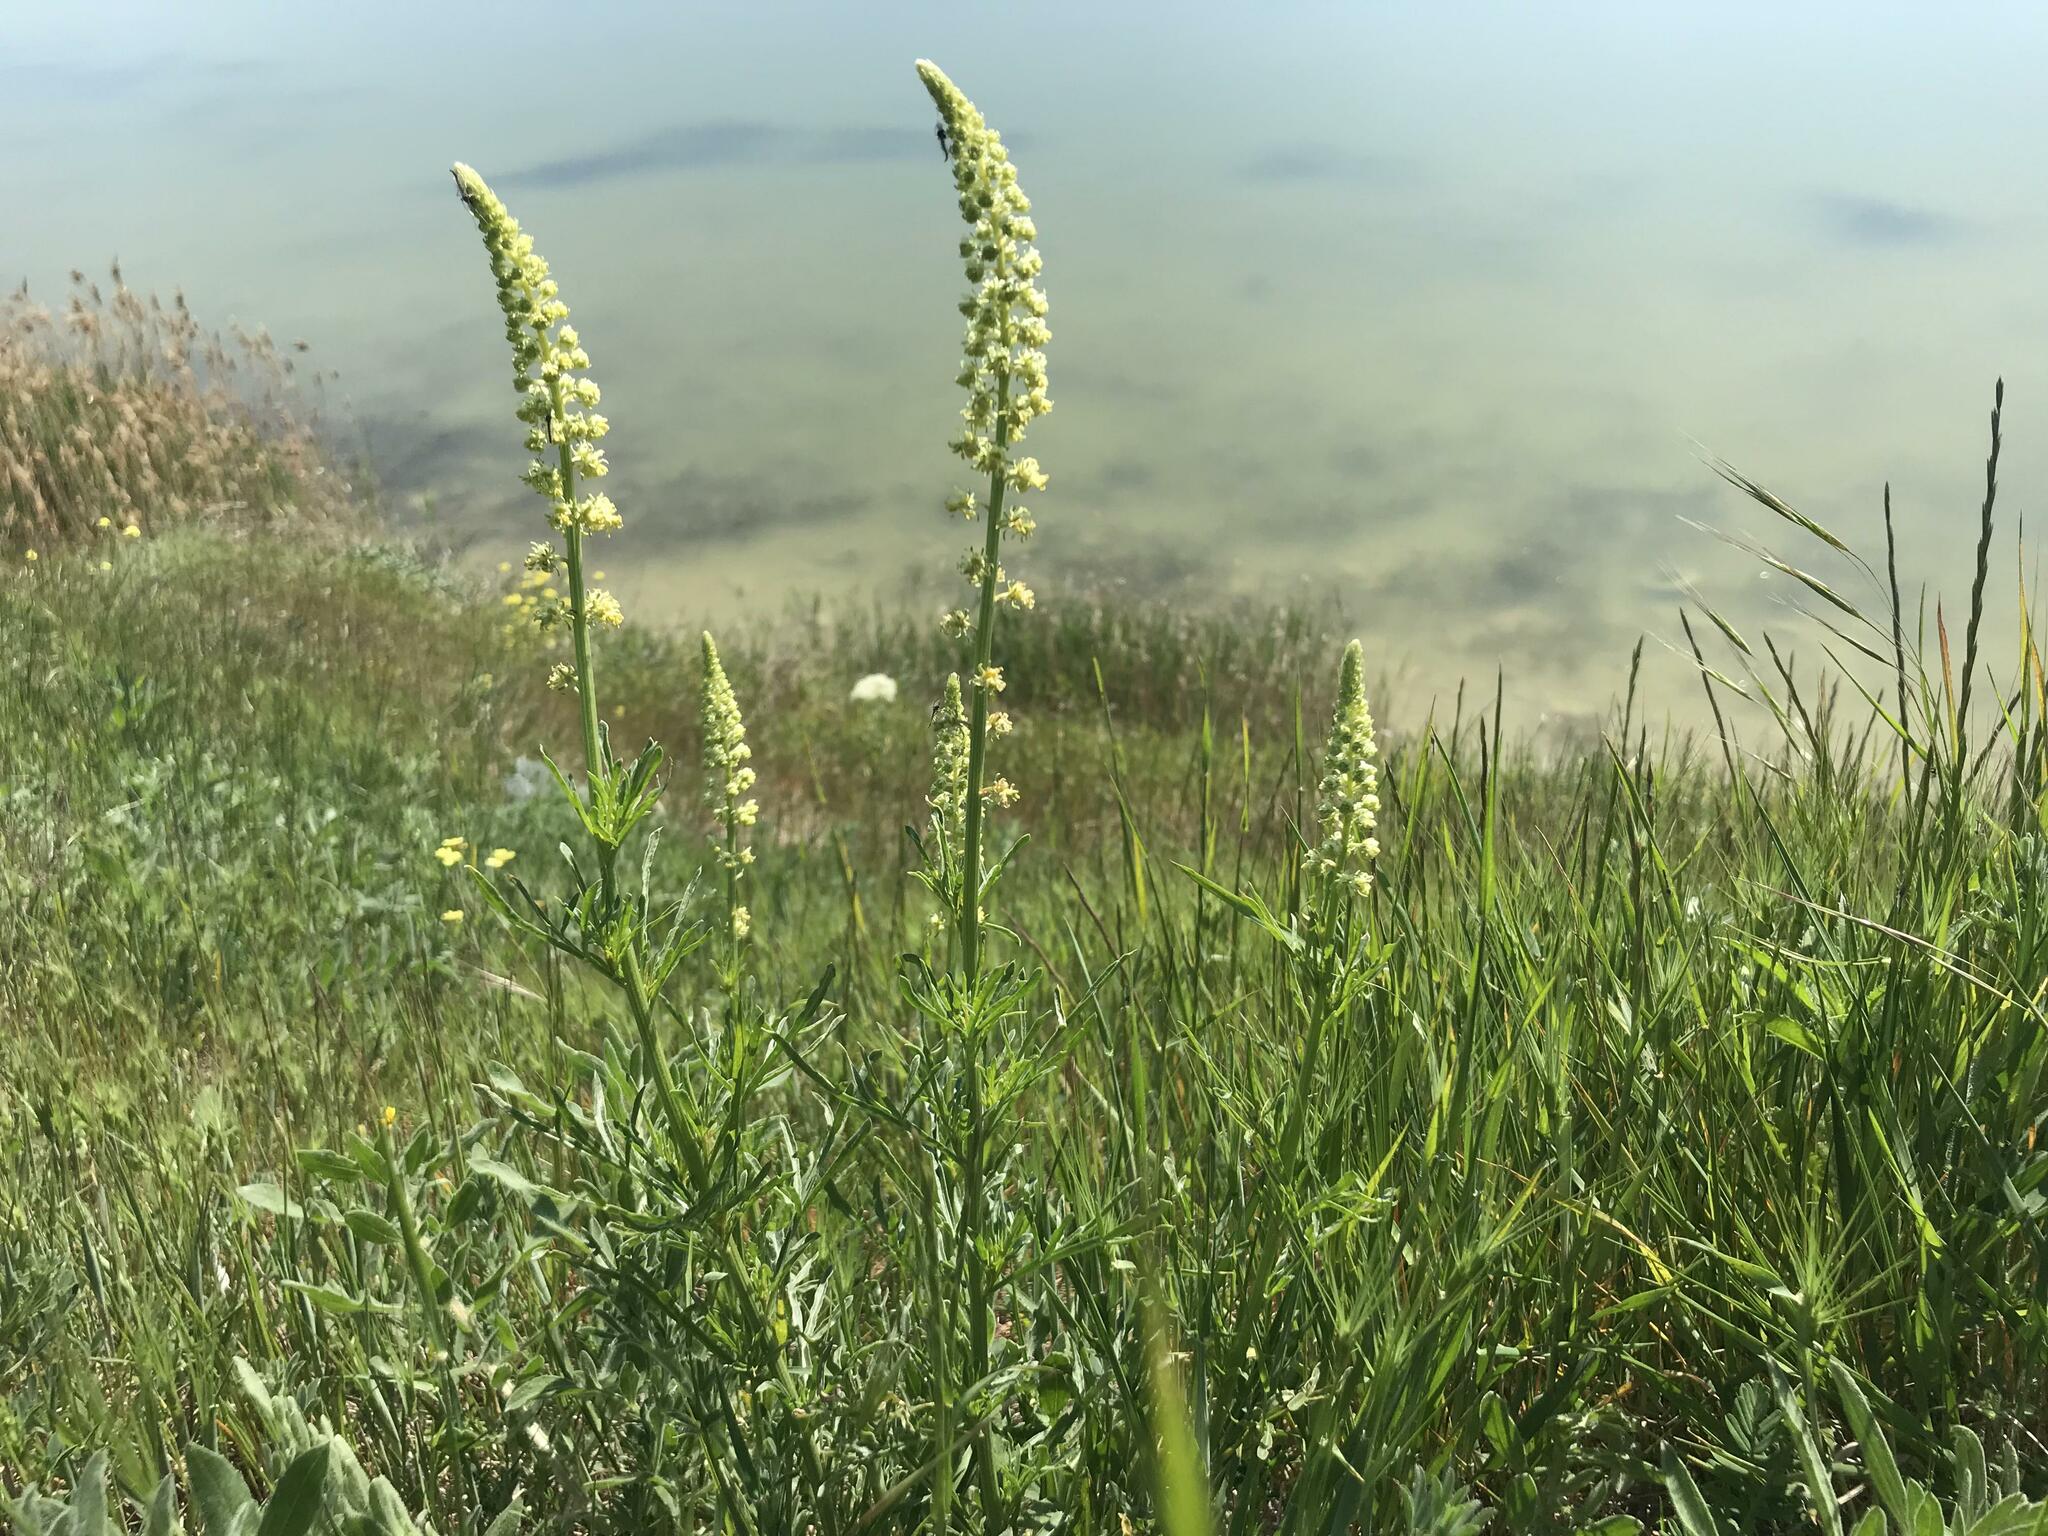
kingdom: Plantae
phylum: Tracheophyta
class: Magnoliopsida
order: Brassicales
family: Resedaceae
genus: Reseda
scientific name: Reseda lutea
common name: Wild mignonette
